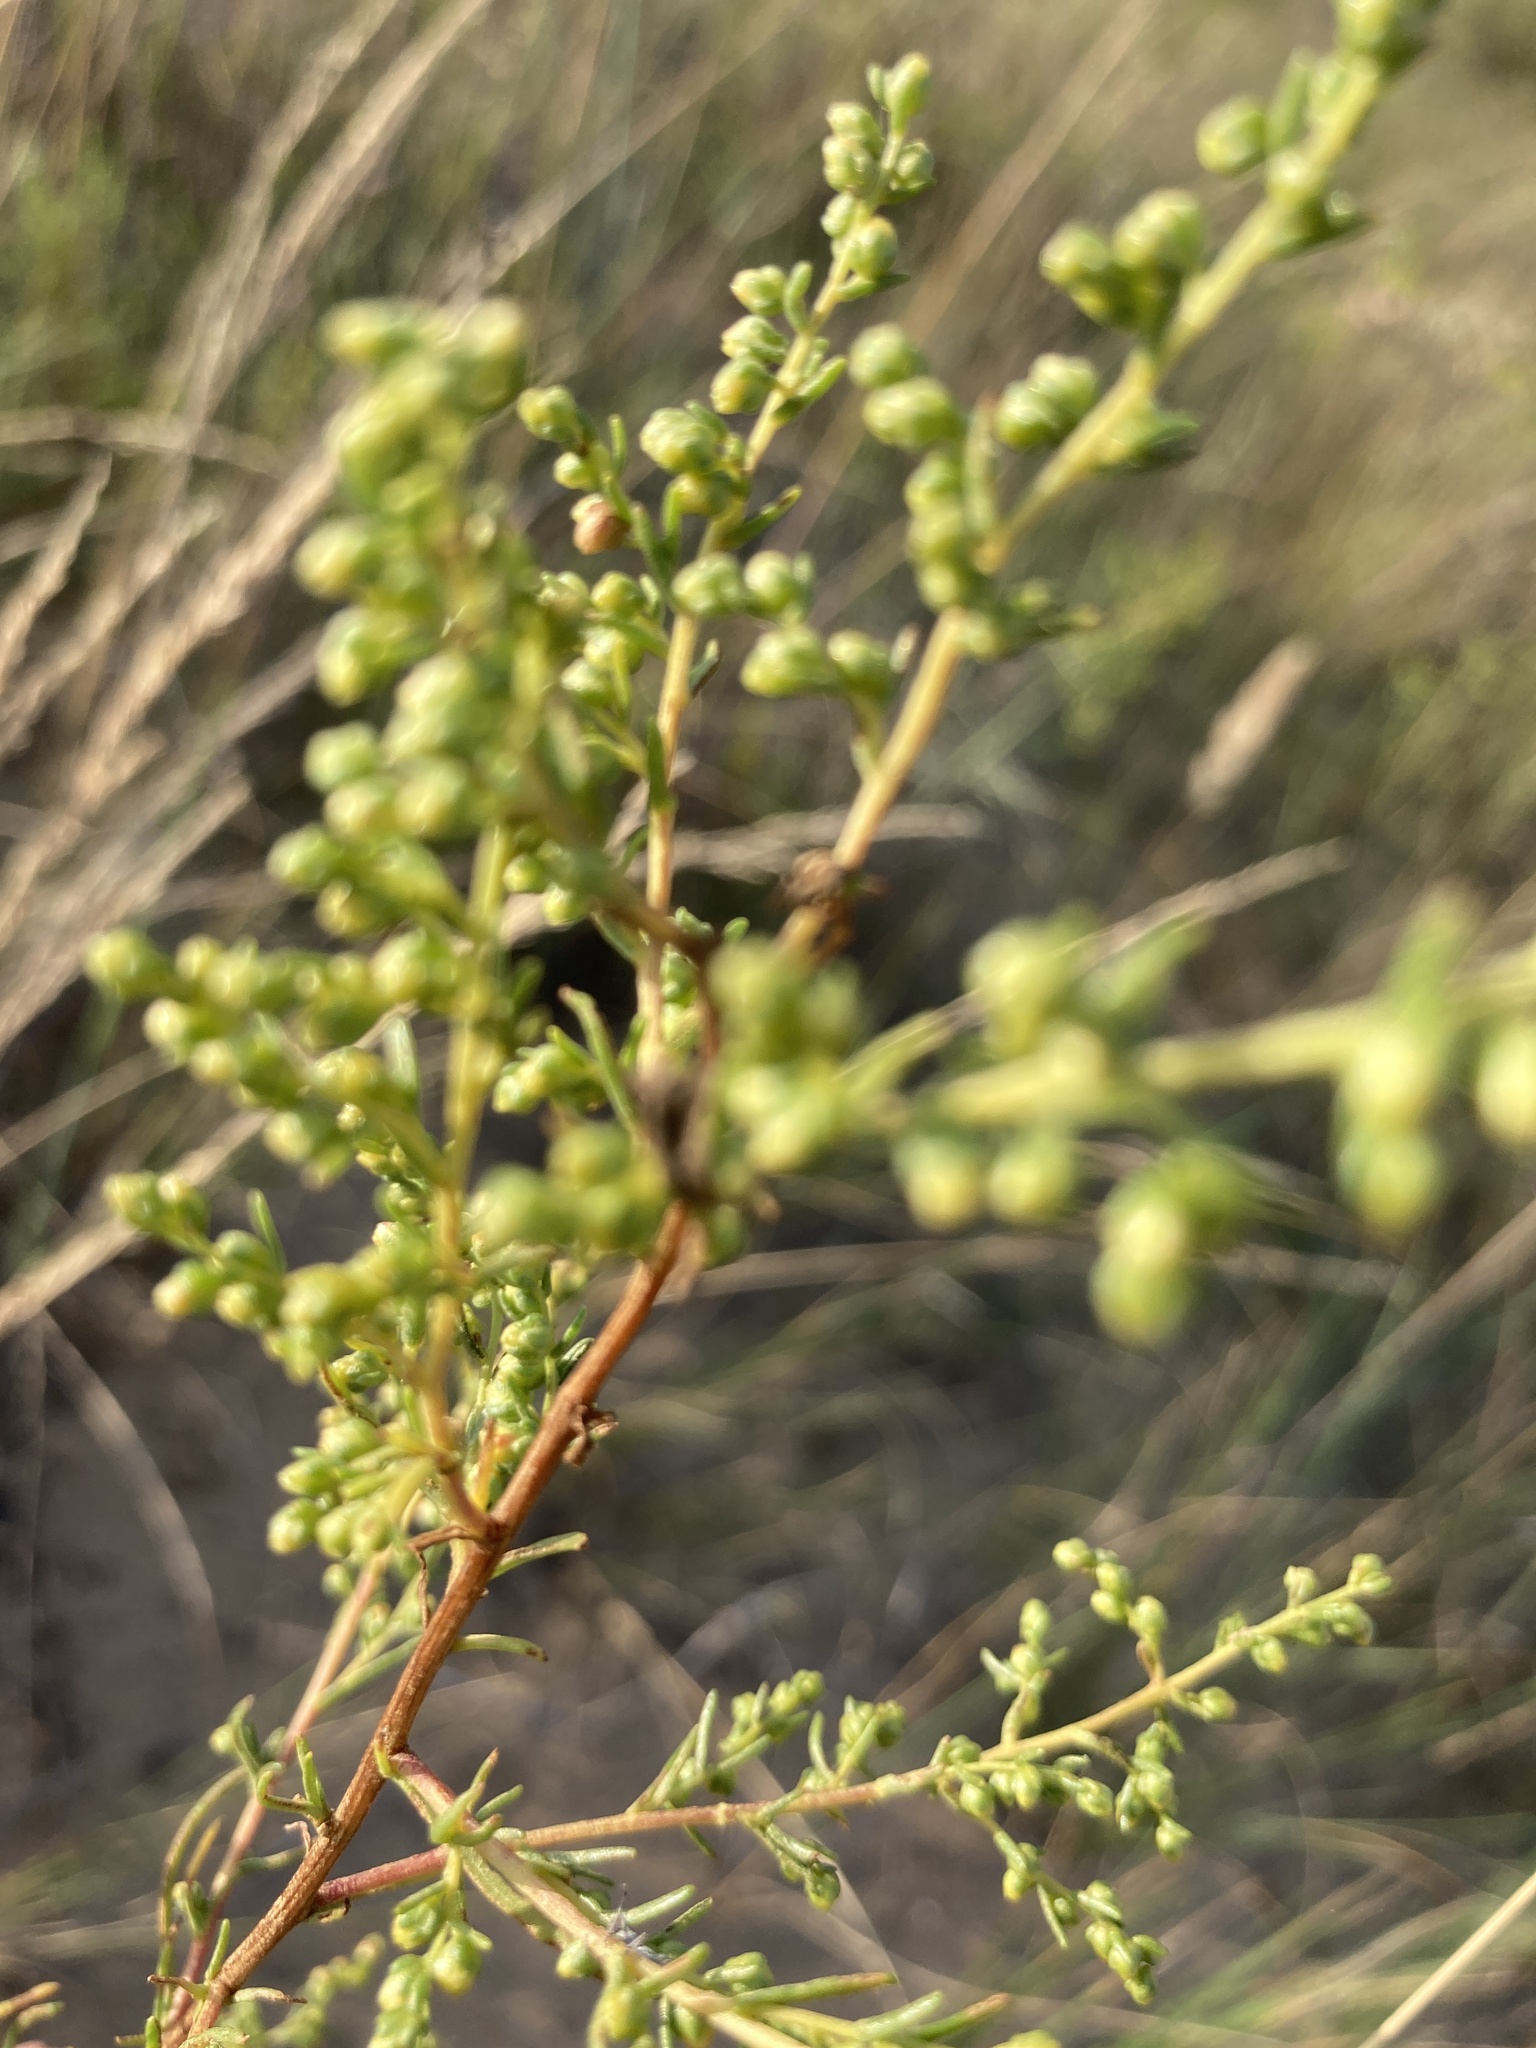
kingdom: Plantae
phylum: Tracheophyta
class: Magnoliopsida
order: Asterales
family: Asteraceae
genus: Artemisia
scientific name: Artemisia campestris
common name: Field wormwood
